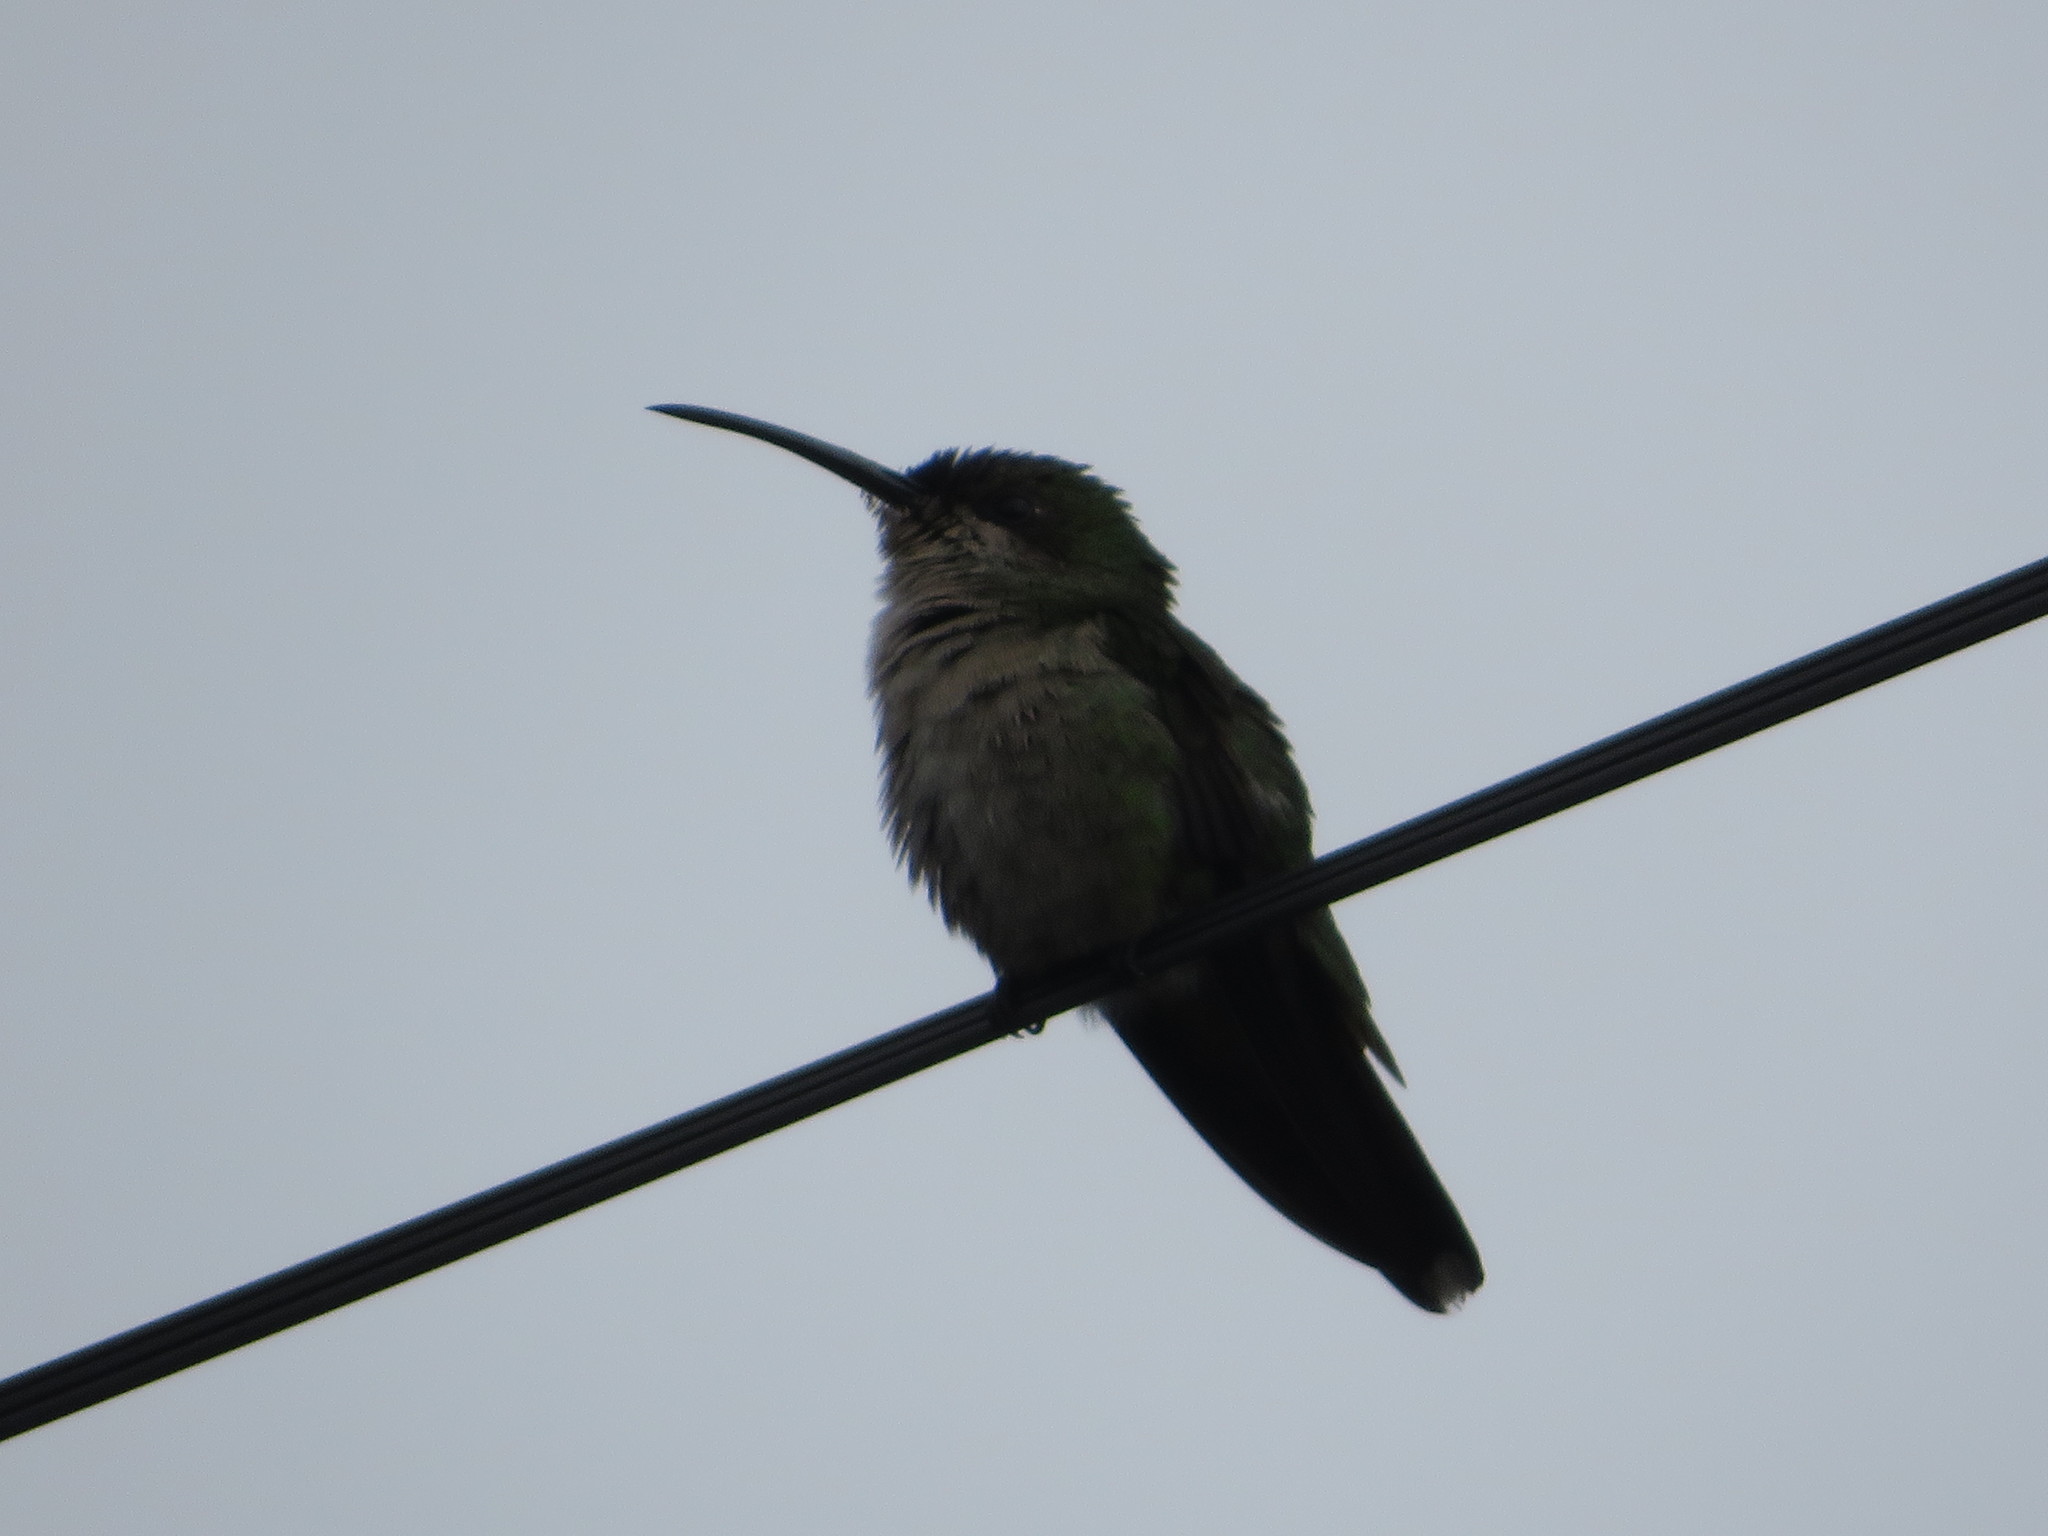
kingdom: Animalia
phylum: Chordata
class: Aves
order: Apodiformes
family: Trochilidae
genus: Anthracothorax
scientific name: Anthracothorax dominicus
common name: Antillean mango
